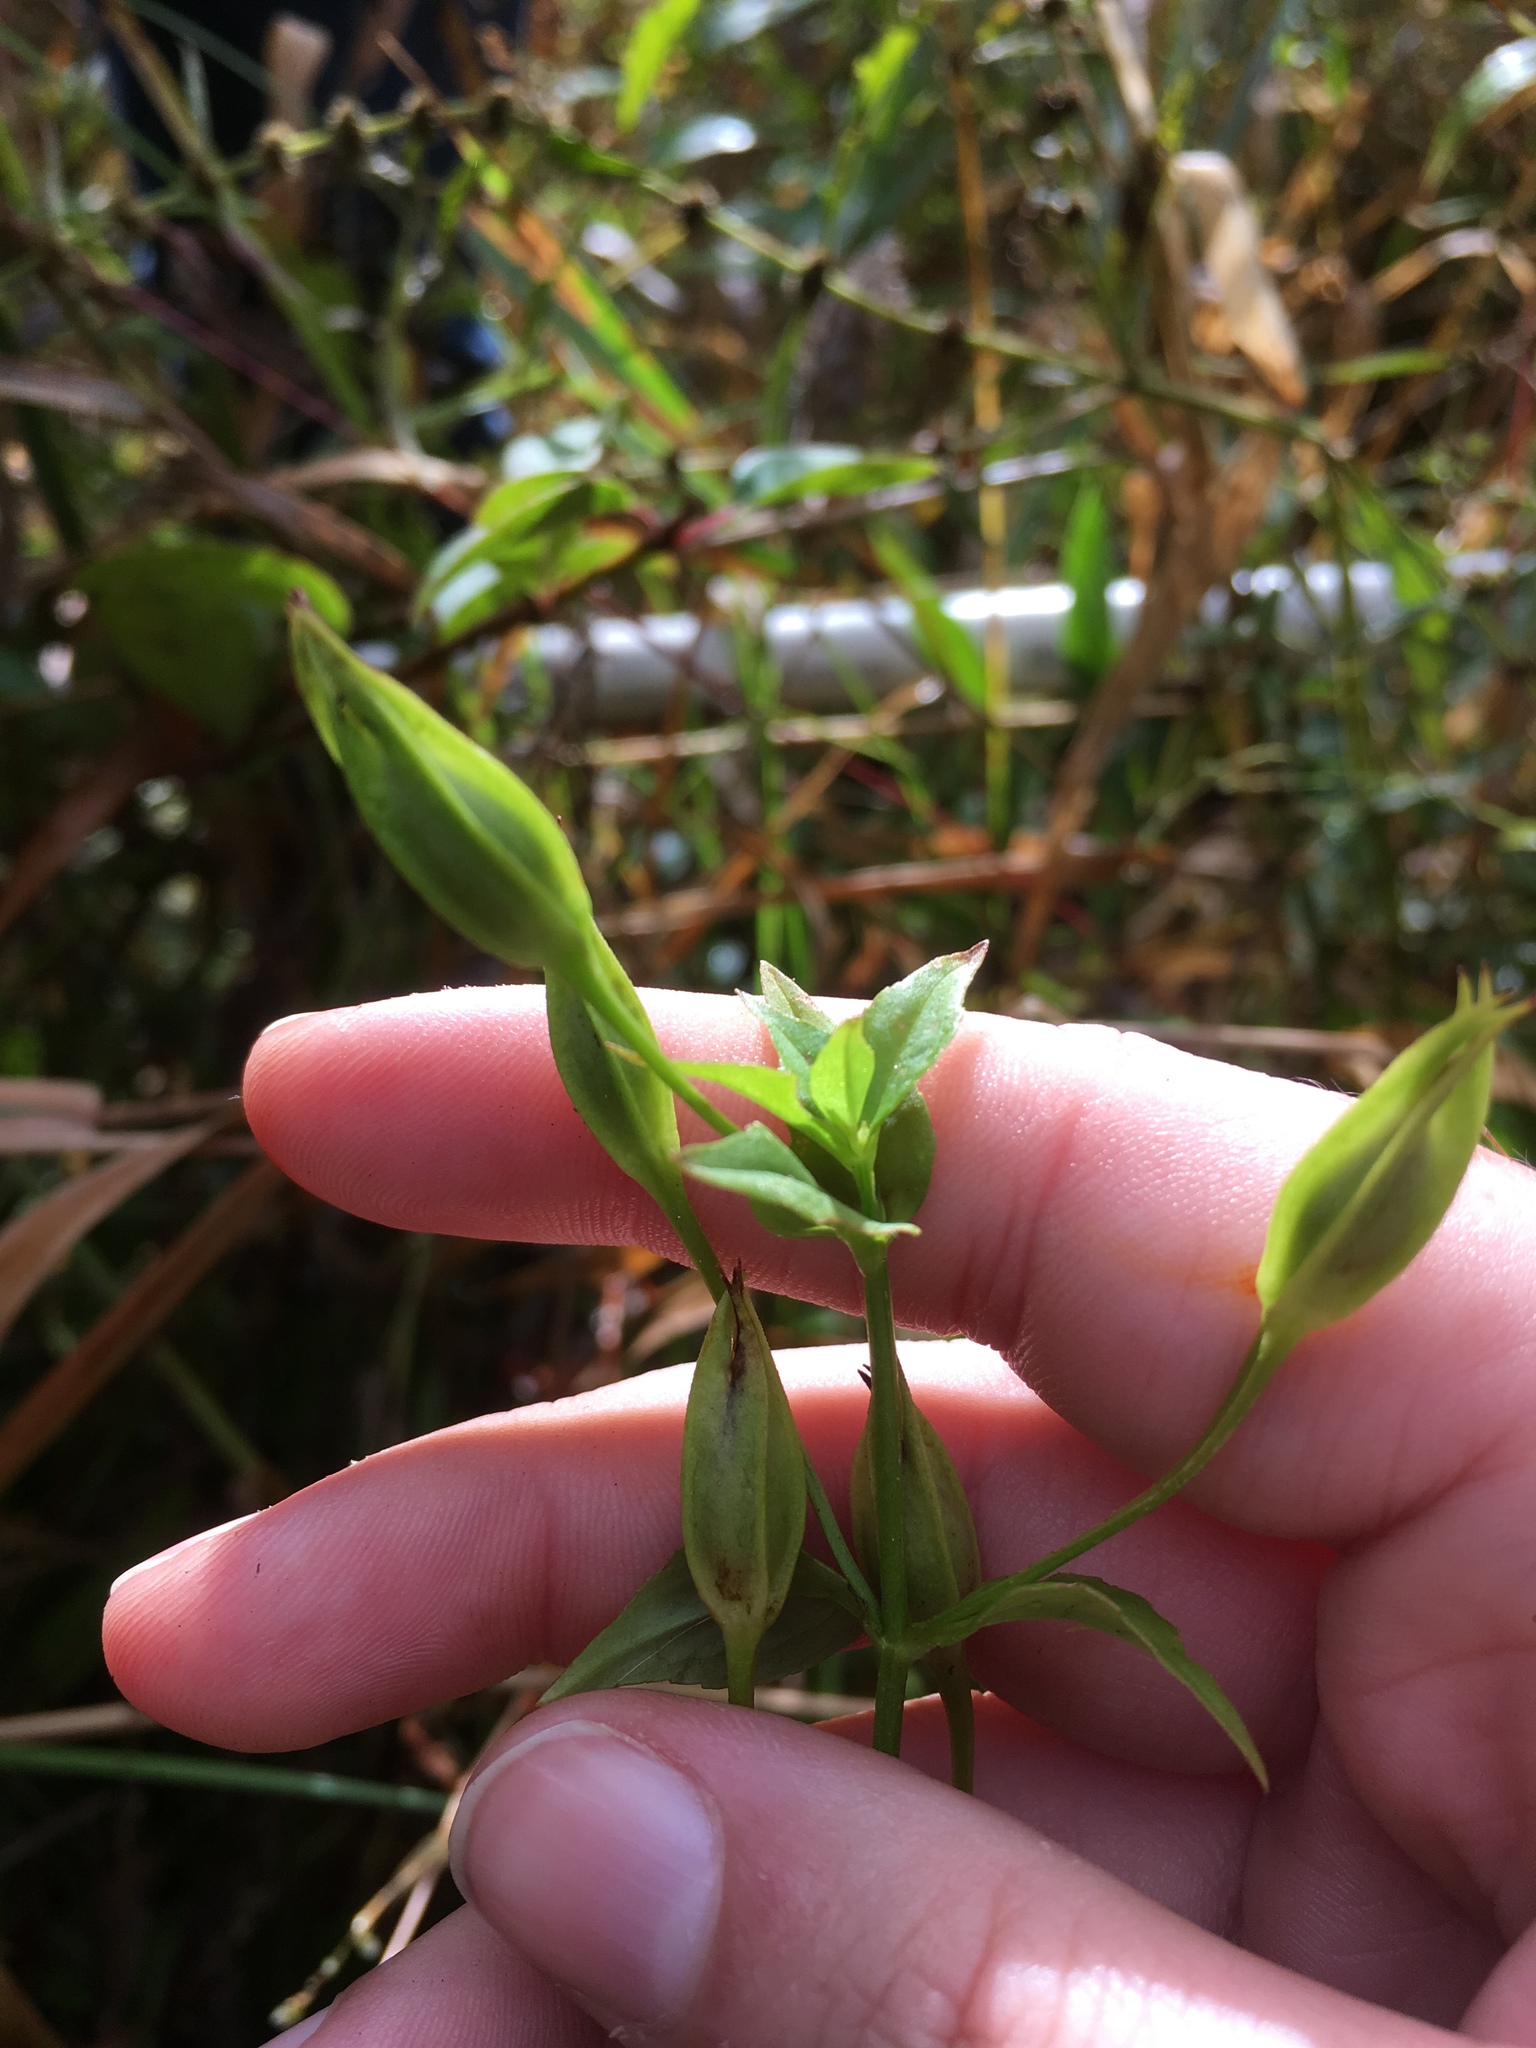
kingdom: Plantae
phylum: Tracheophyta
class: Magnoliopsida
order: Lamiales
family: Phrymaceae
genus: Mimulus
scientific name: Mimulus ringens
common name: Allegheny monkeyflower
